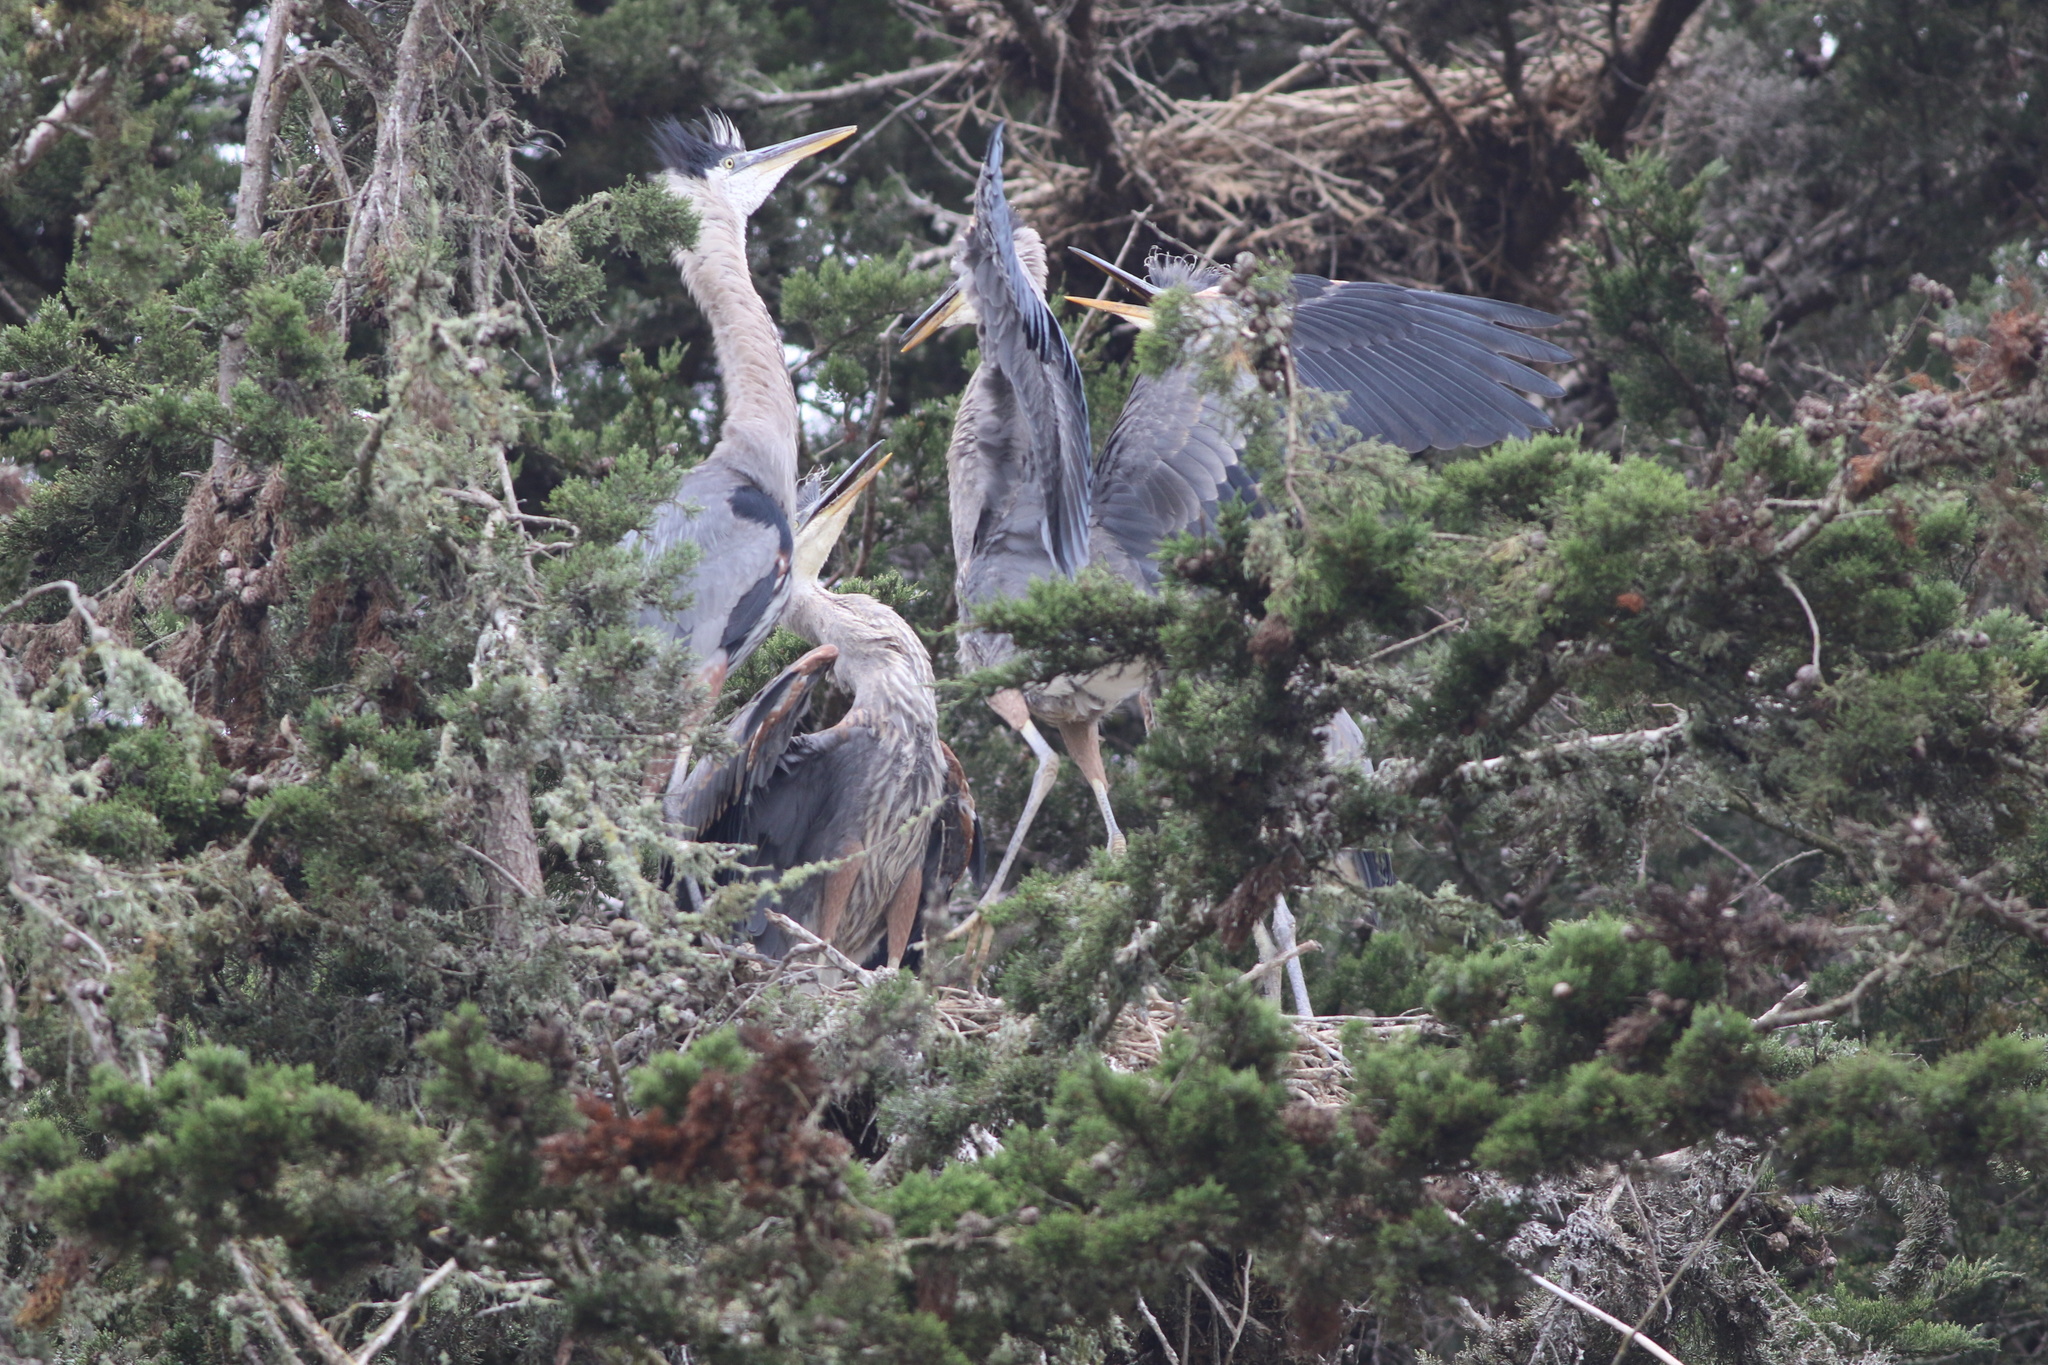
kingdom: Animalia
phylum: Chordata
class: Aves
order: Pelecaniformes
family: Ardeidae
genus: Ardea
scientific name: Ardea herodias
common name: Great blue heron
